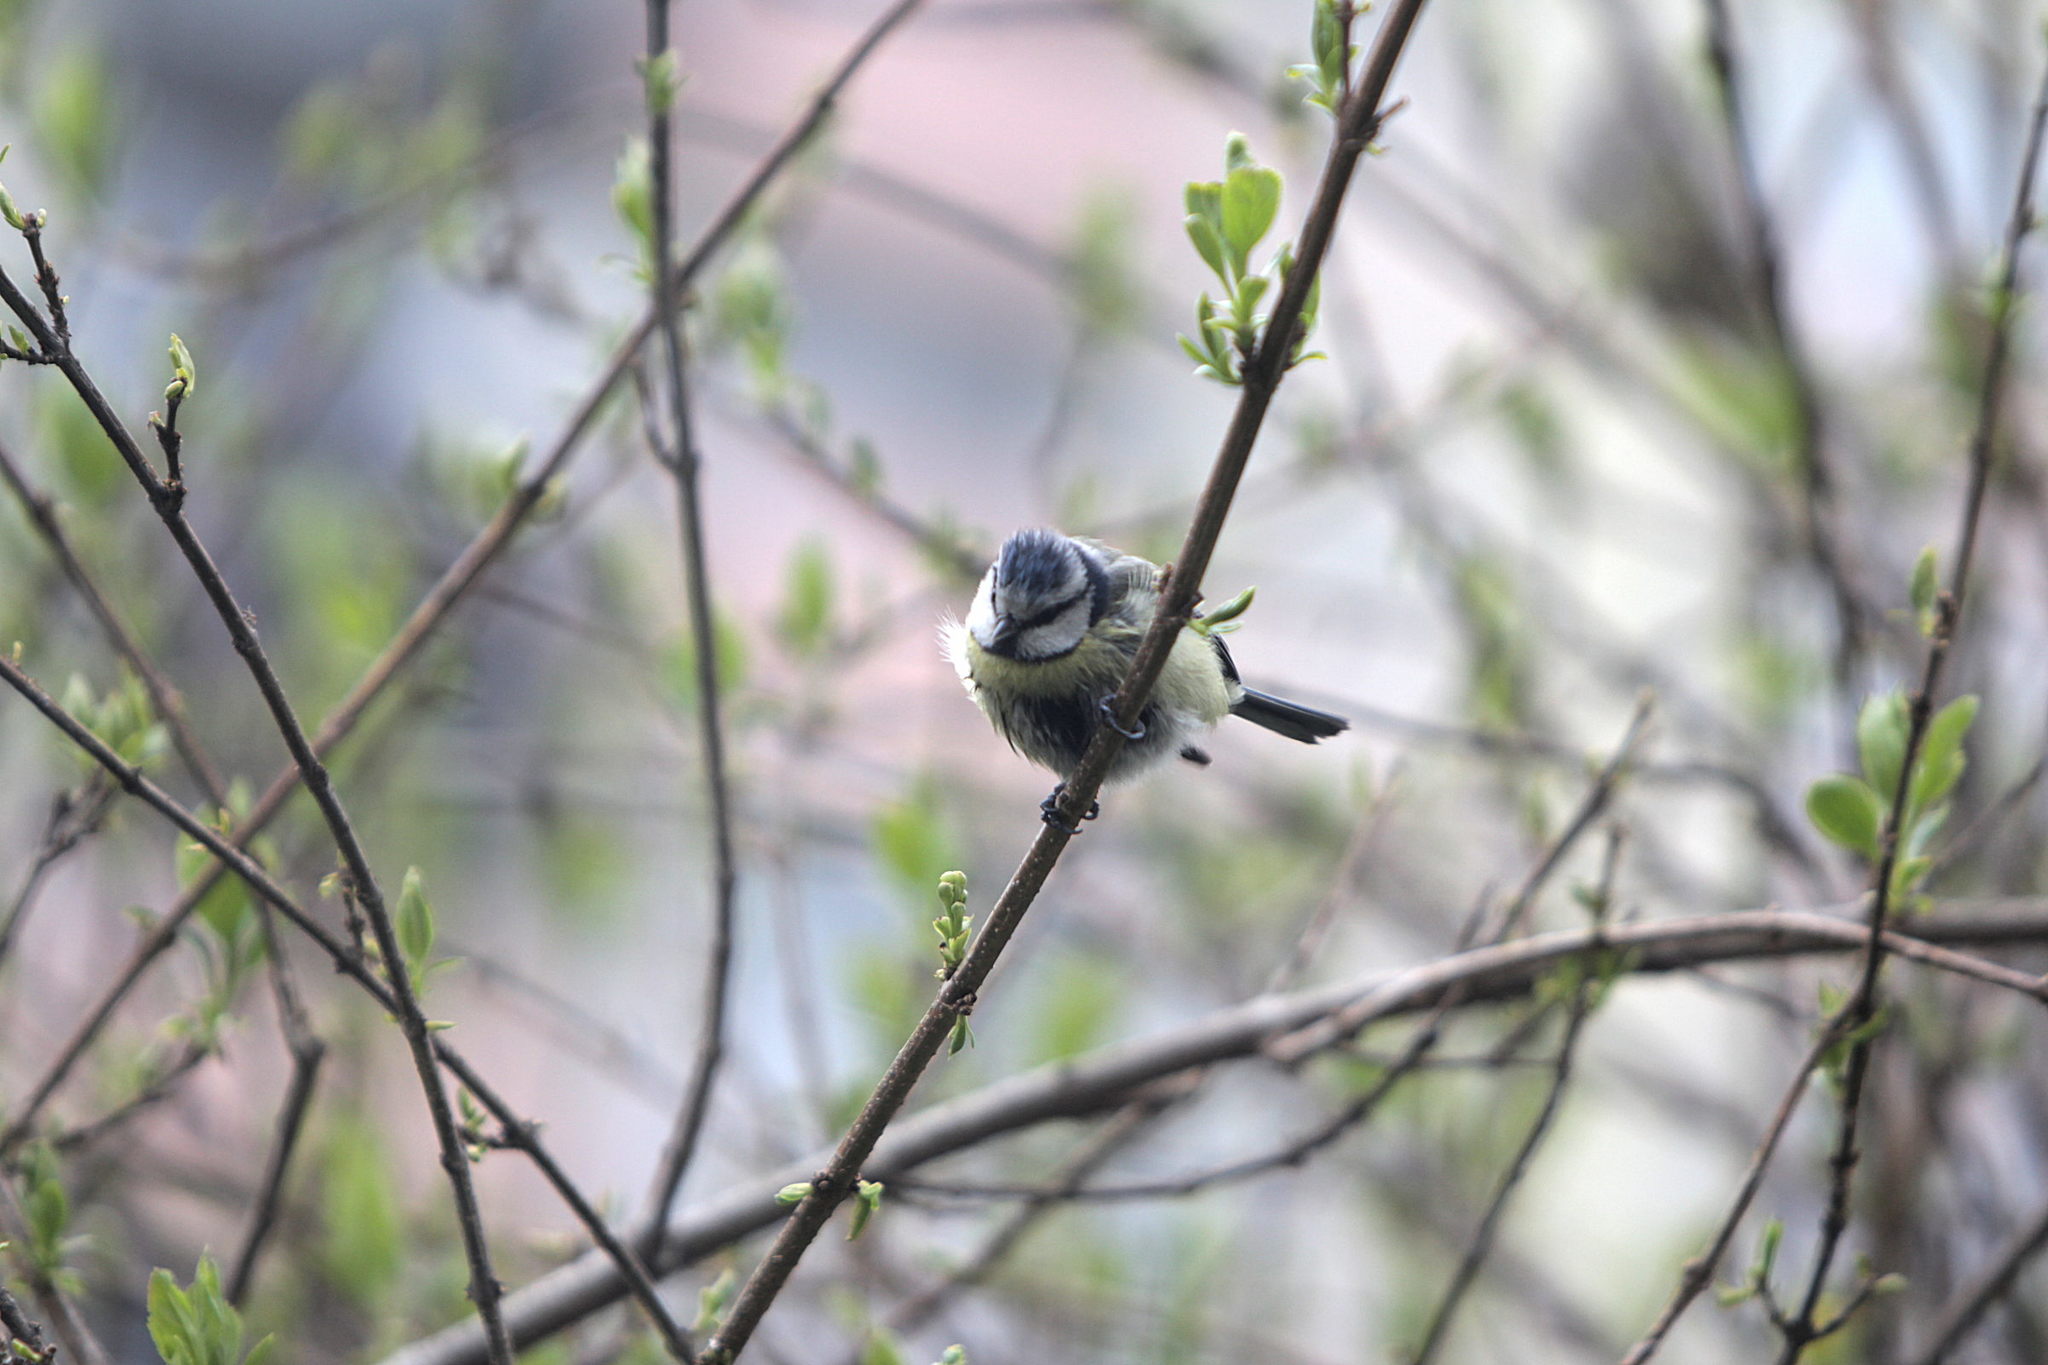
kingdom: Animalia
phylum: Chordata
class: Aves
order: Passeriformes
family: Paridae
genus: Cyanistes
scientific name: Cyanistes caeruleus
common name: Eurasian blue tit
